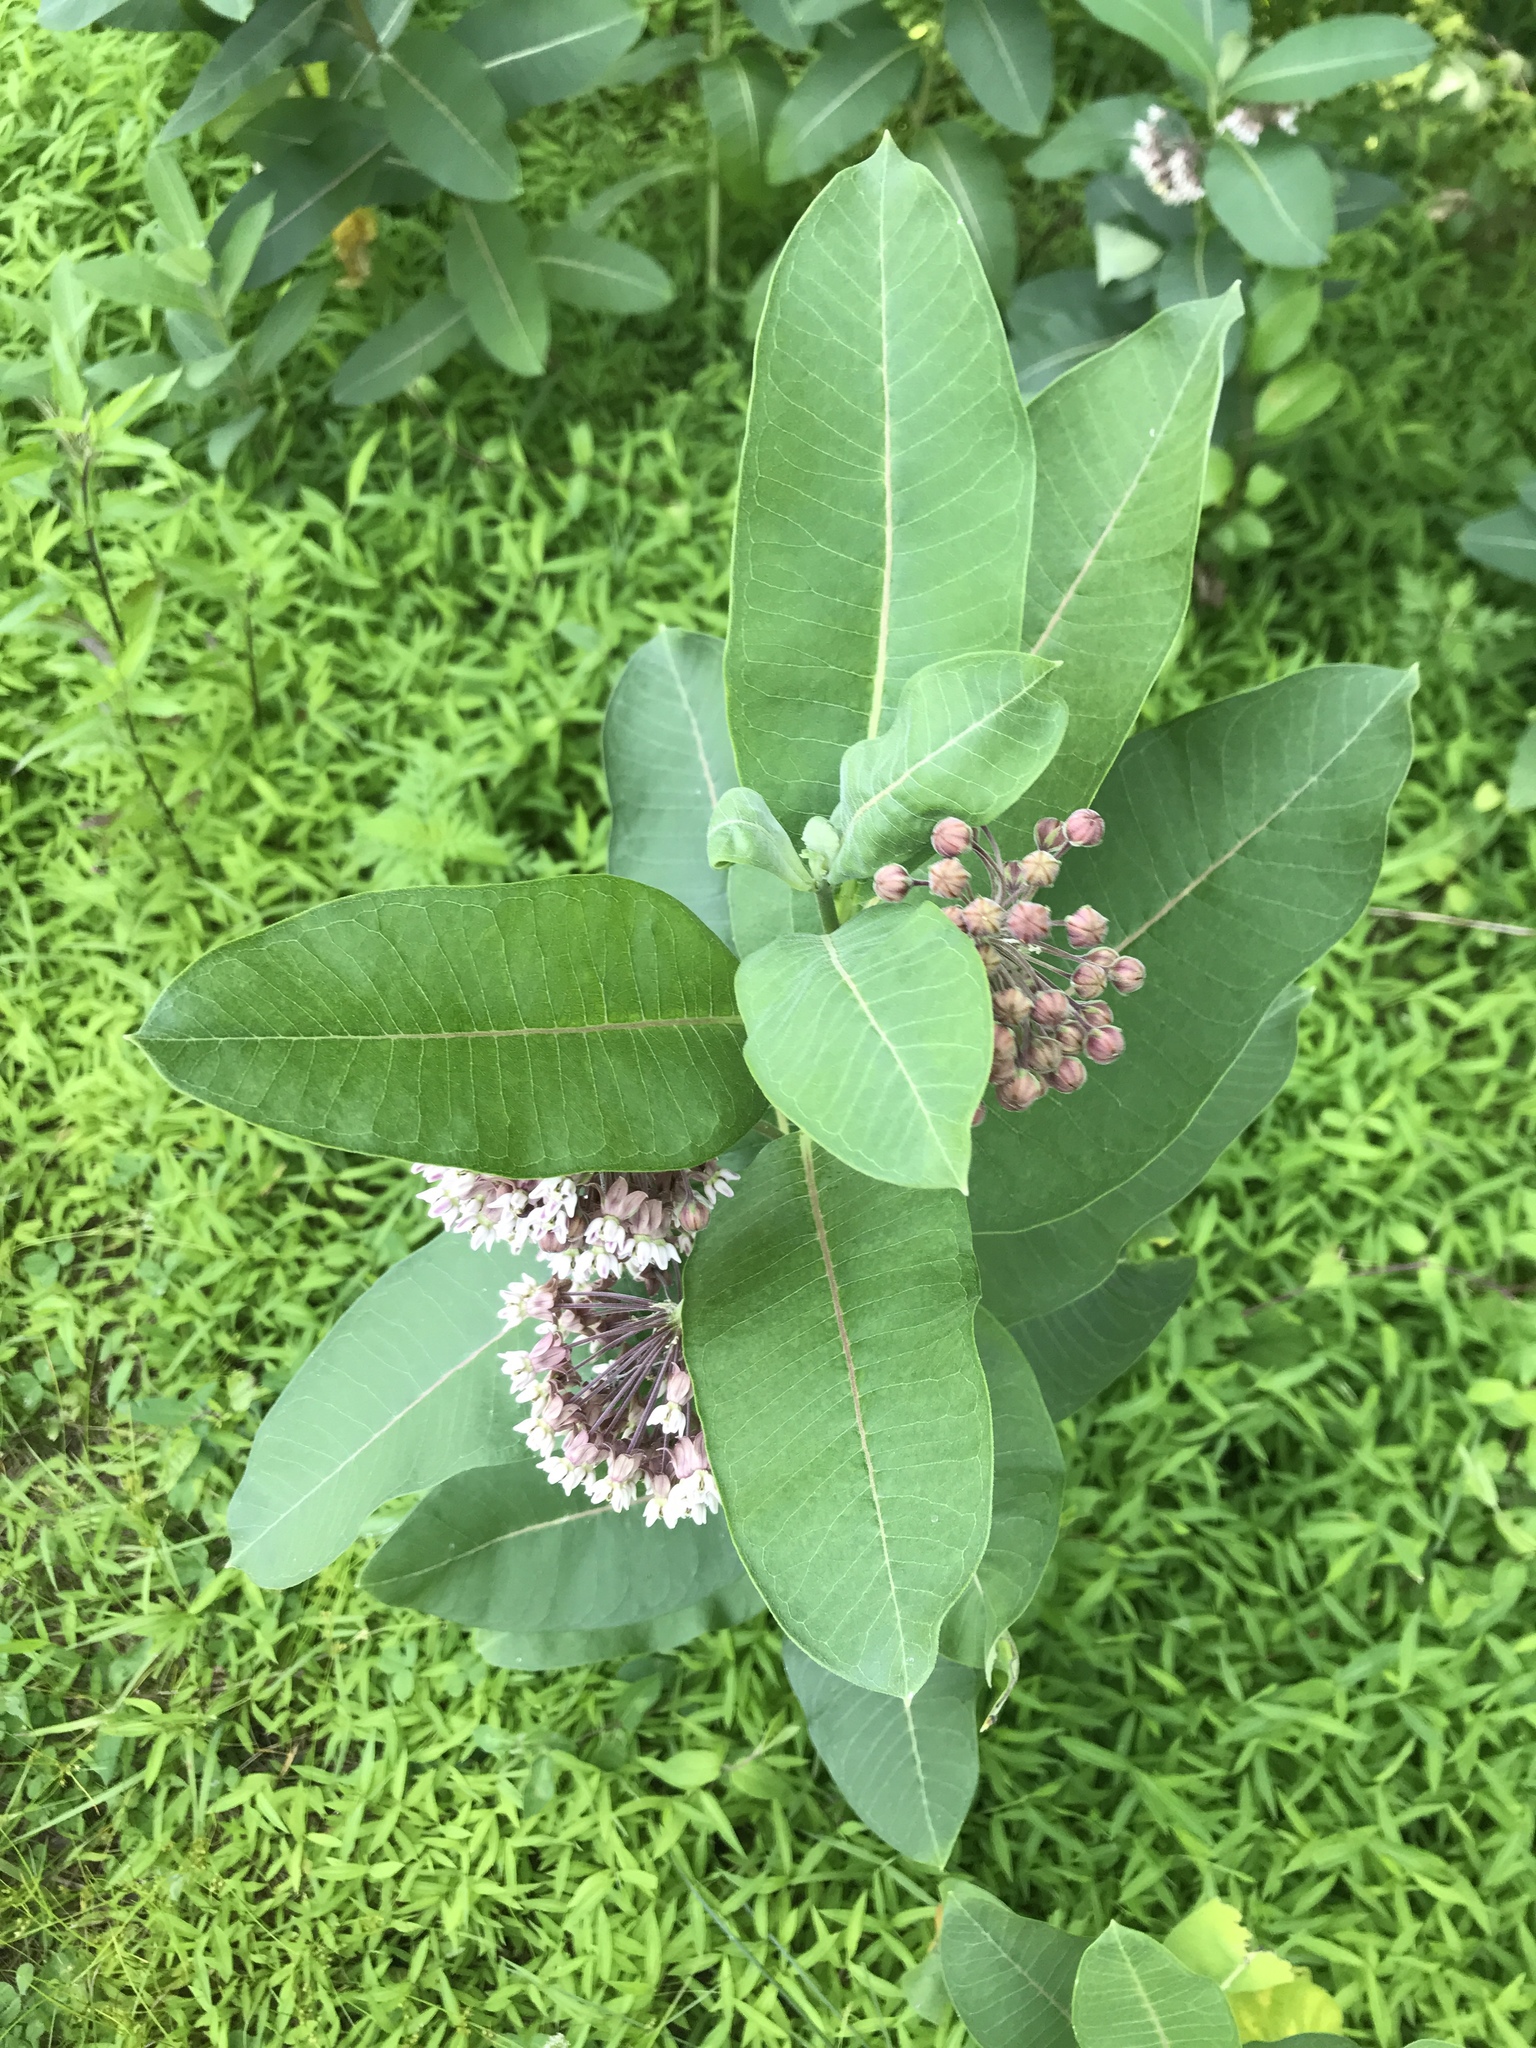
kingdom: Plantae
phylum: Tracheophyta
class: Magnoliopsida
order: Gentianales
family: Apocynaceae
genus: Asclepias
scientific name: Asclepias syriaca
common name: Common milkweed
